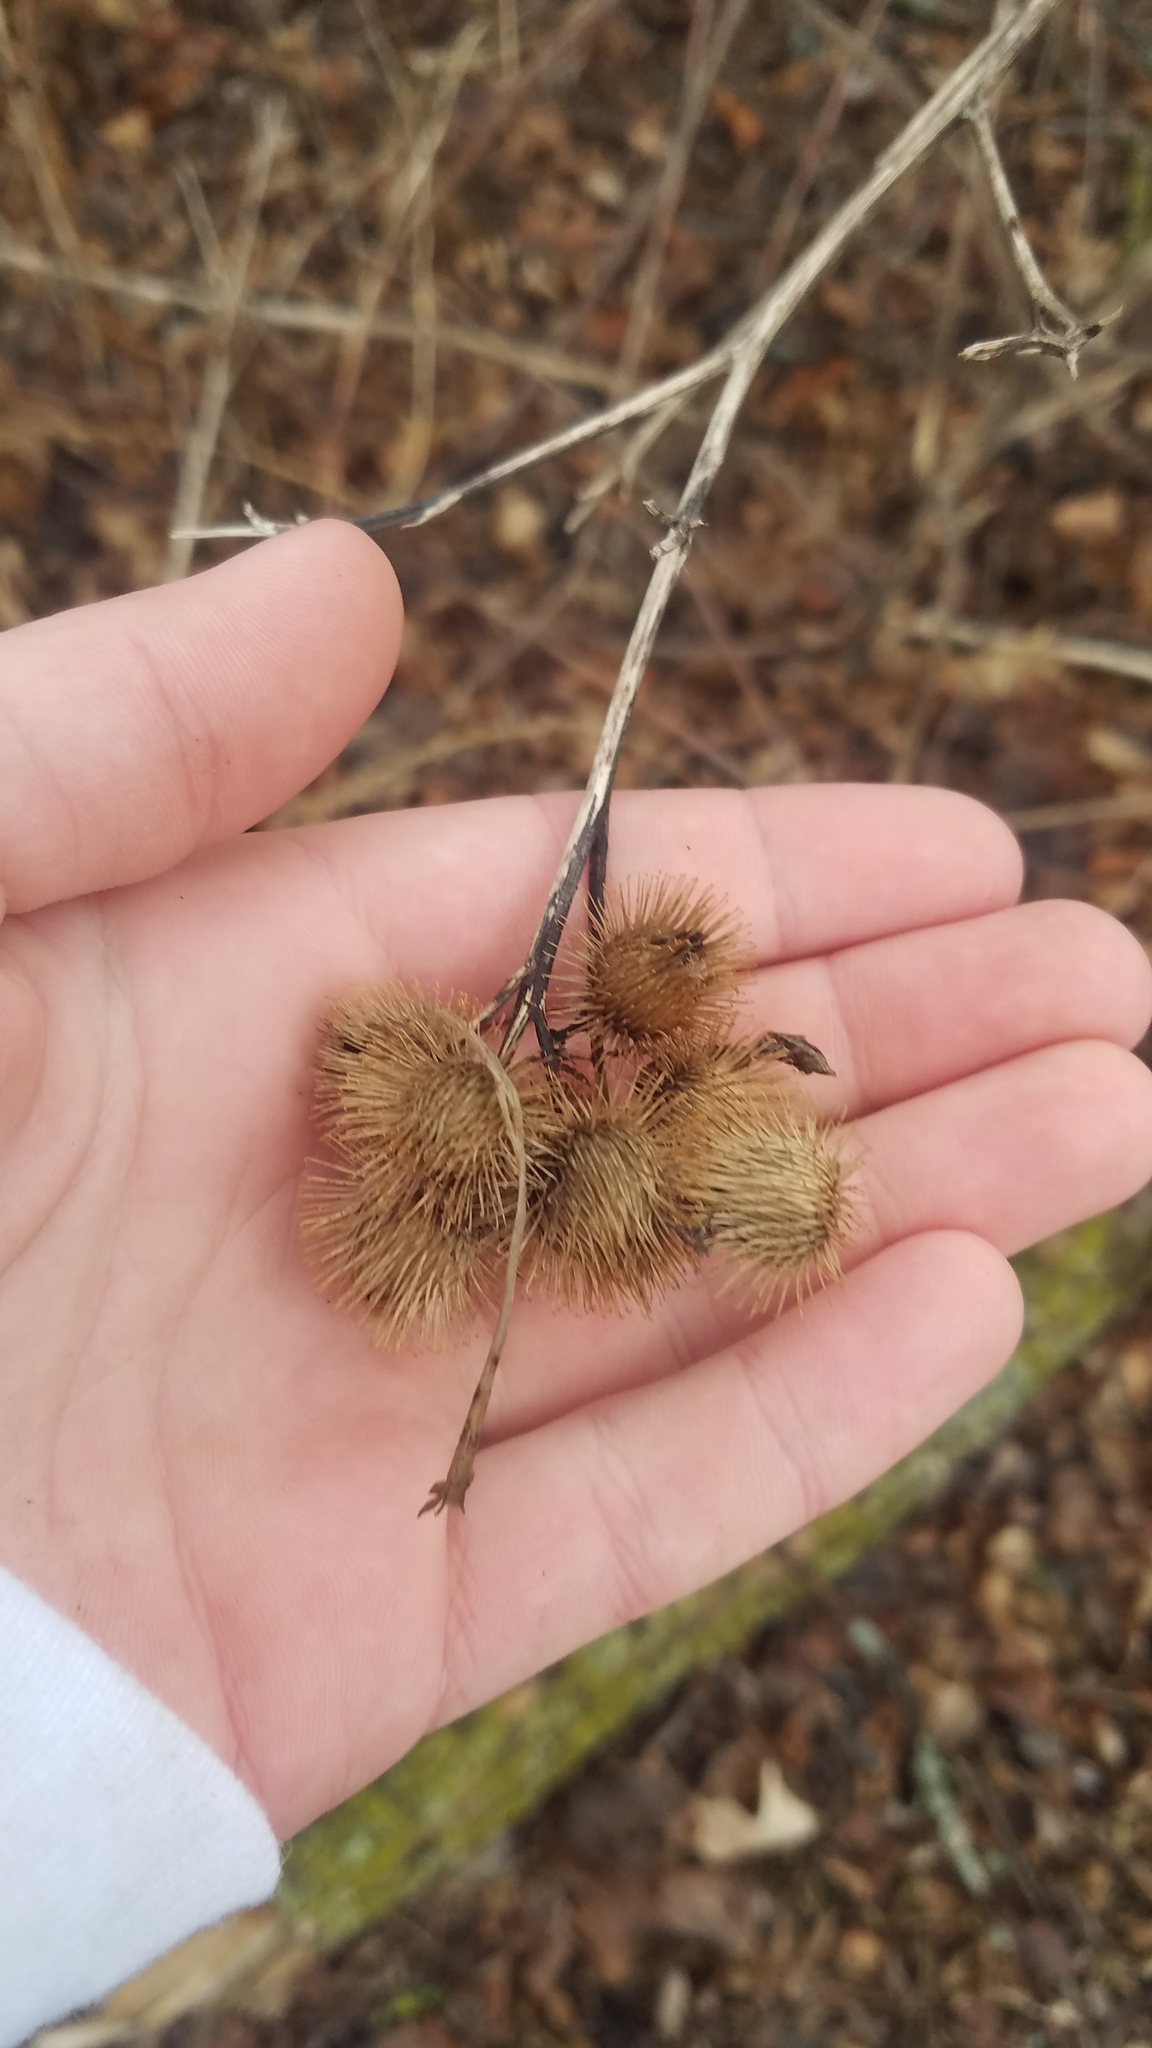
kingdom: Plantae
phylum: Tracheophyta
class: Magnoliopsida
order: Asterales
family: Asteraceae
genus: Arctium
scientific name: Arctium minus
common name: Lesser burdock
